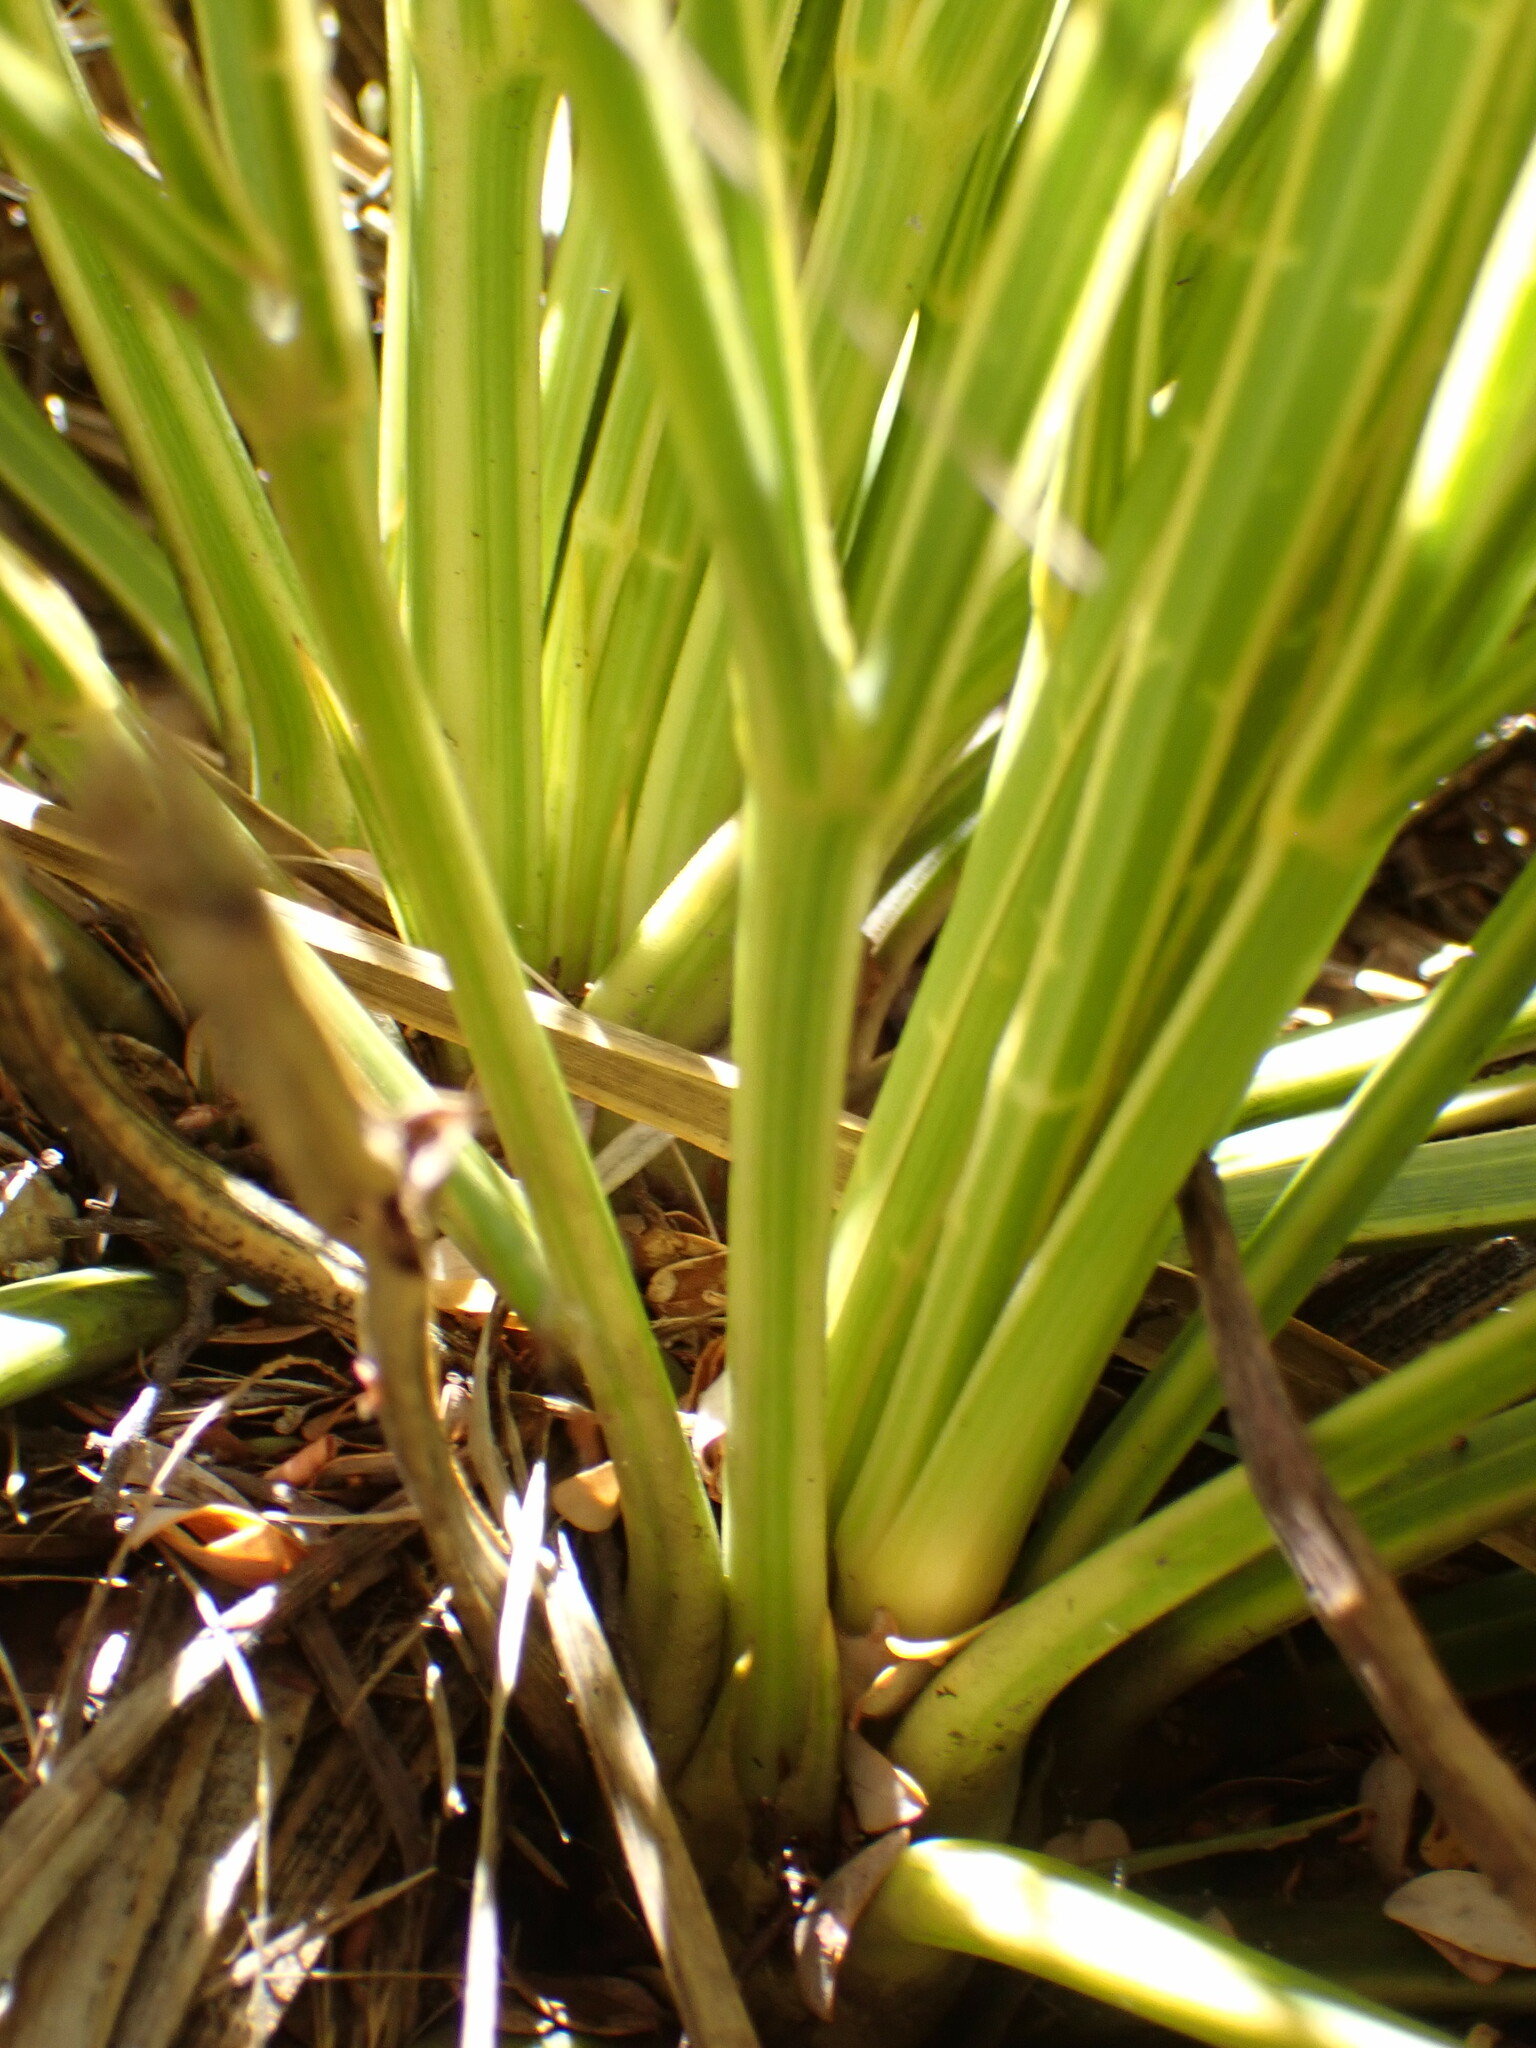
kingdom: Plantae
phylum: Tracheophyta
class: Magnoliopsida
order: Apiales
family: Apiaceae
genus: Aciphylla
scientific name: Aciphylla aurea
